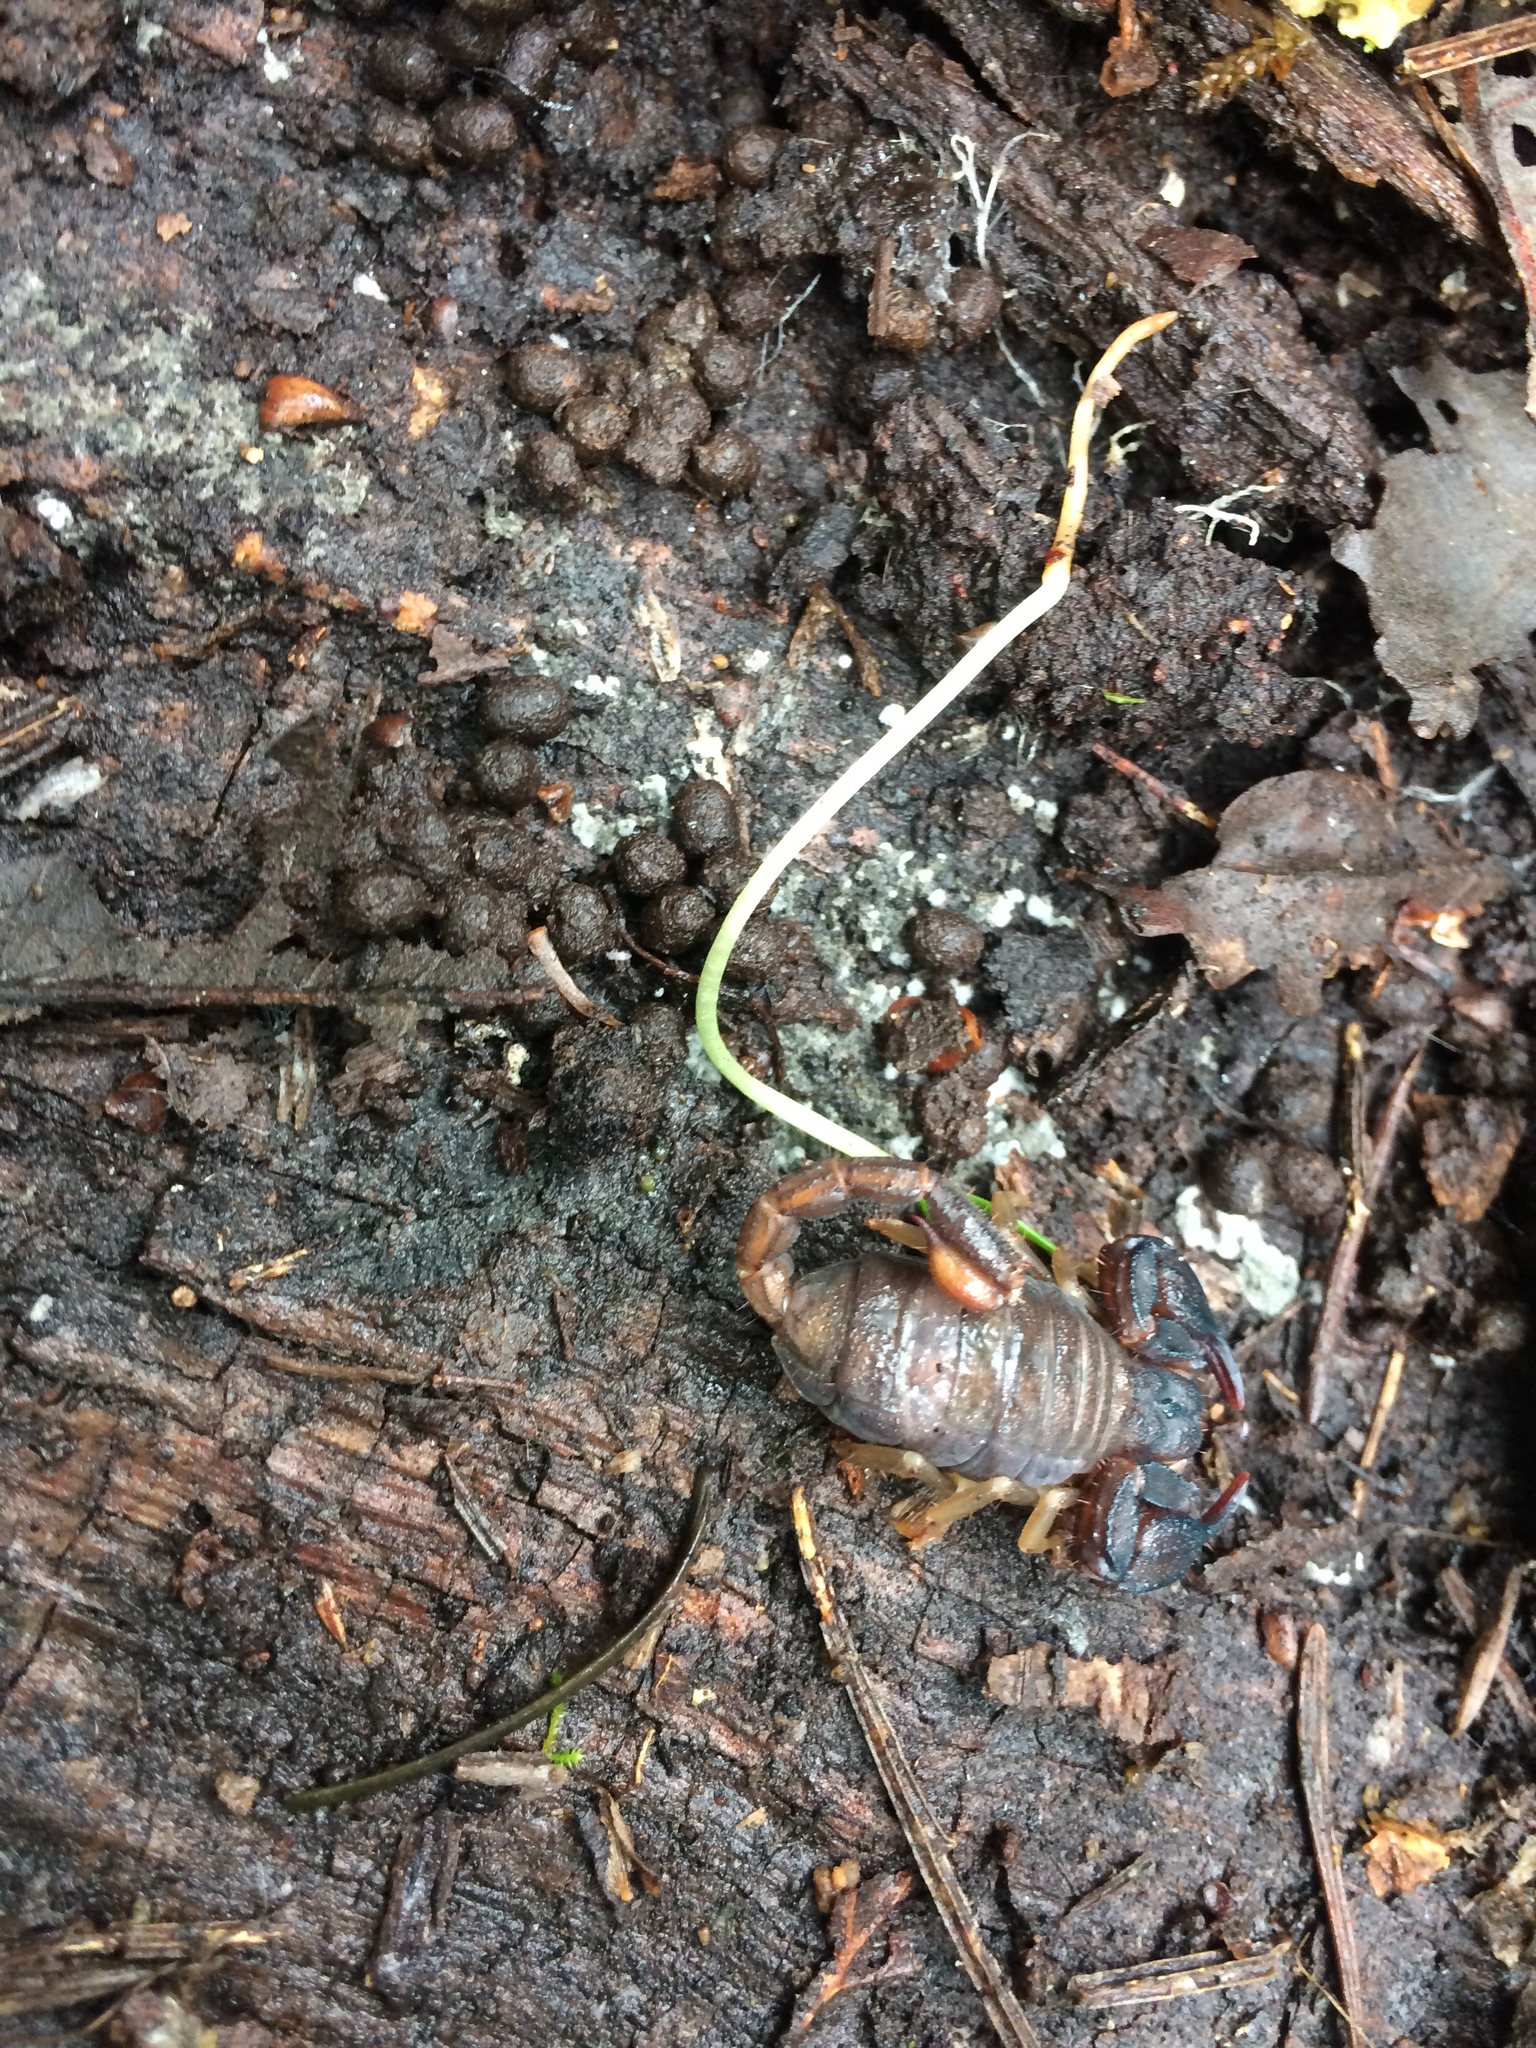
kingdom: Animalia
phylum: Arthropoda
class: Arachnida
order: Scorpiones
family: Chactidae
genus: Uroctonus
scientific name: Uroctonus mordax
